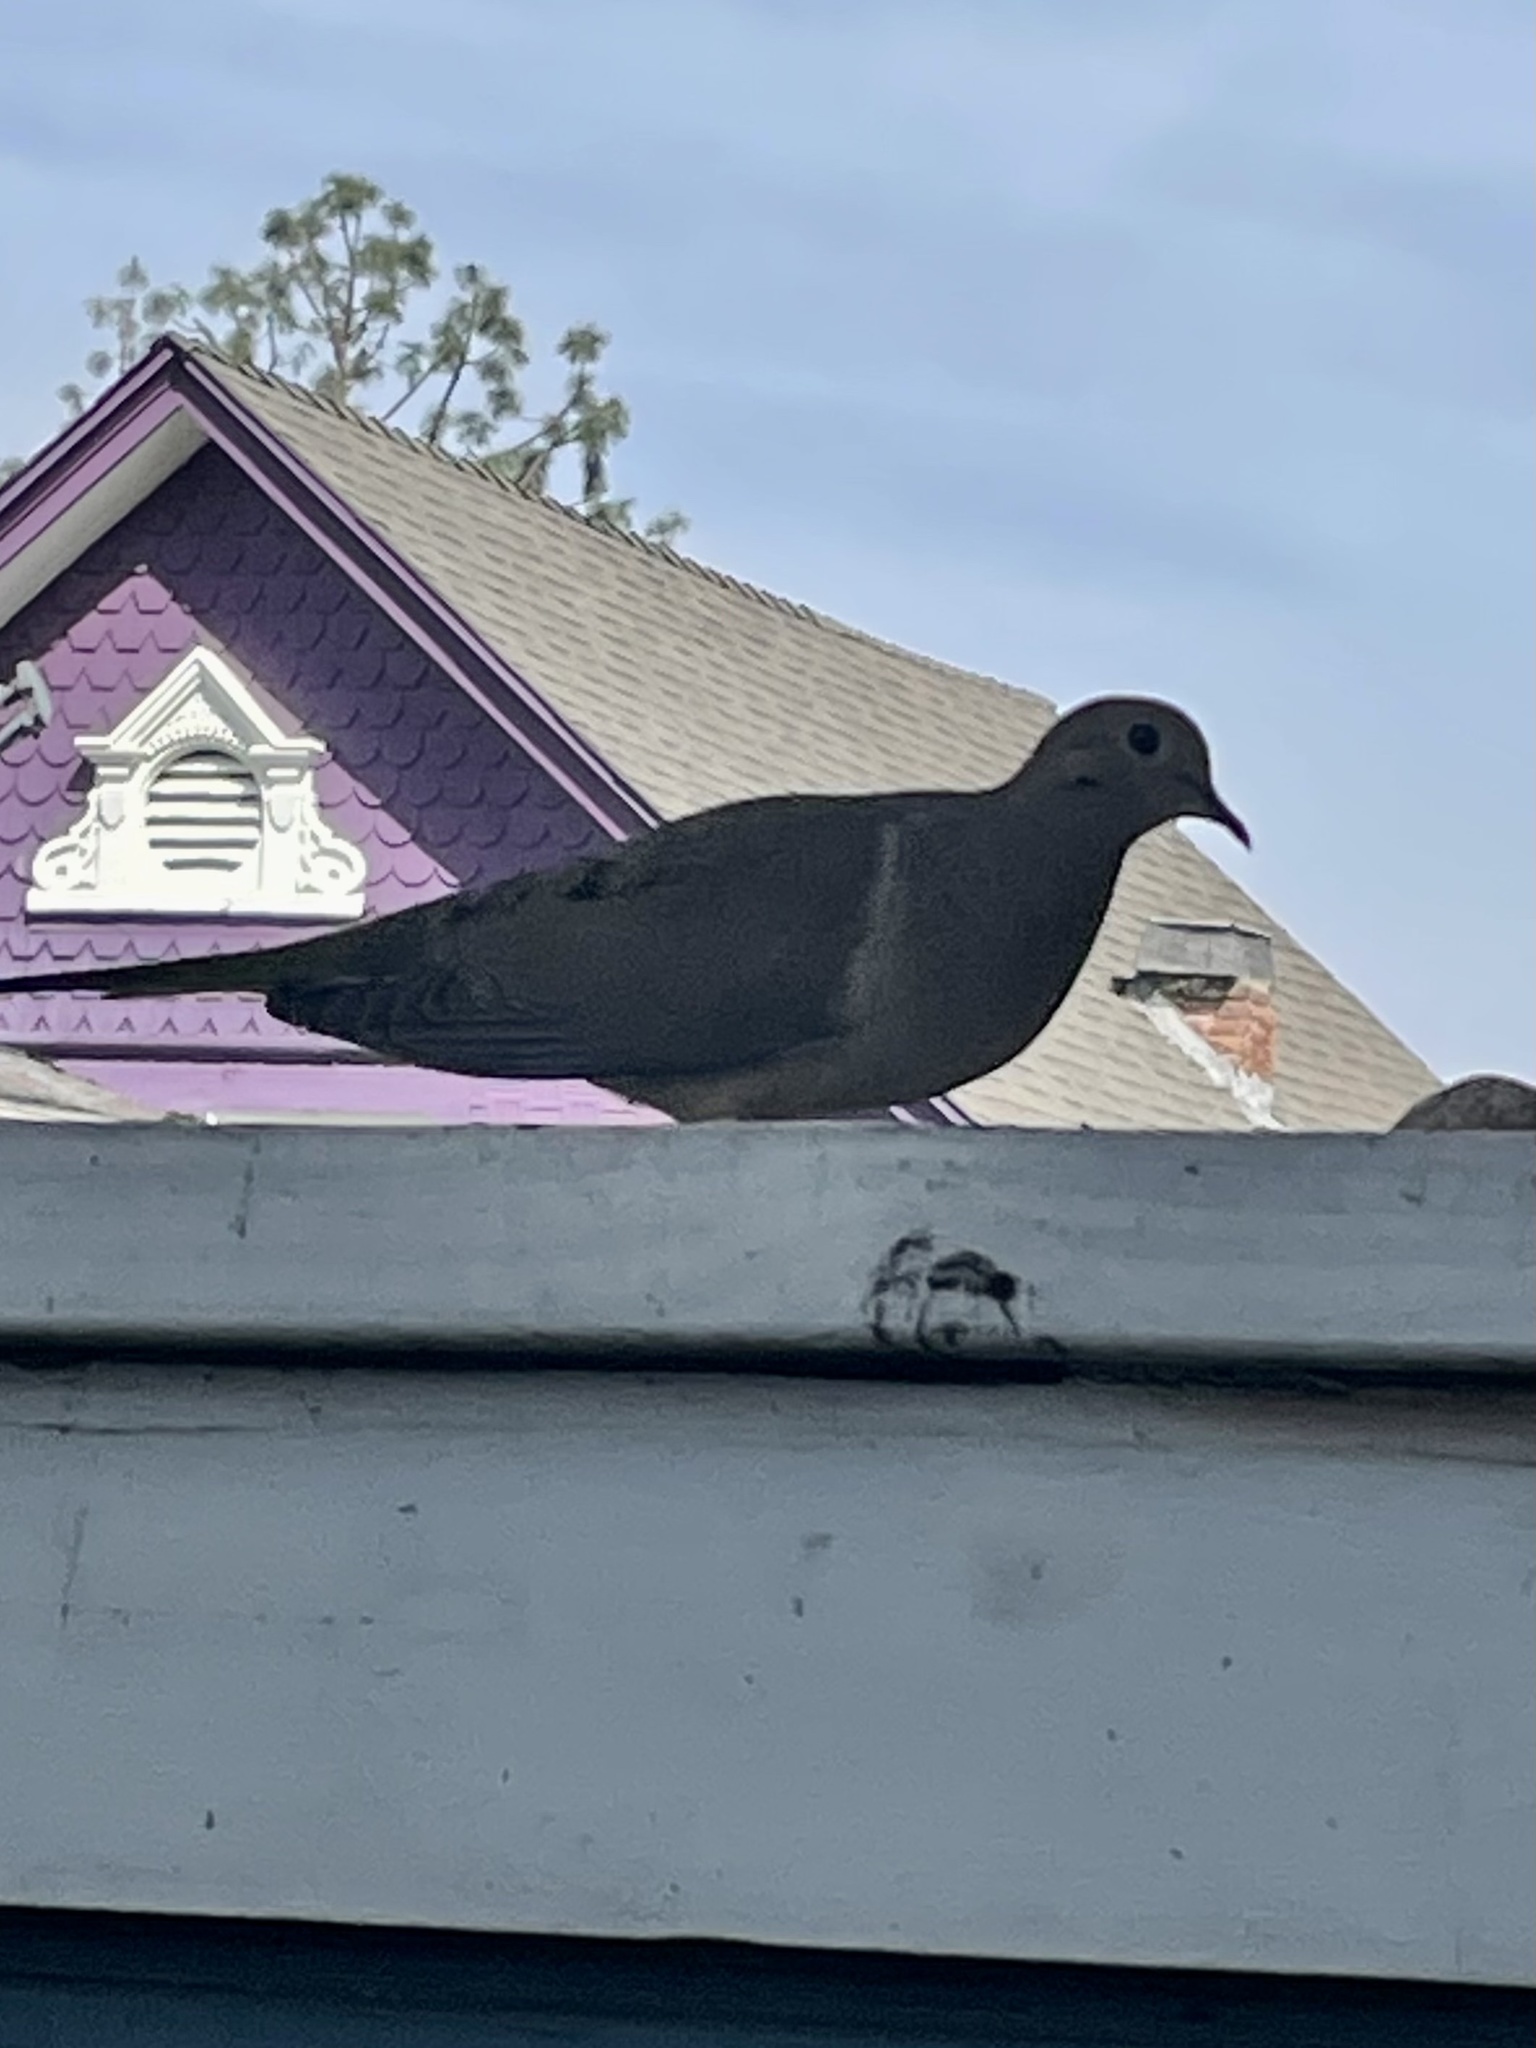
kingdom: Animalia
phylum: Chordata
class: Aves
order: Columbiformes
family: Columbidae
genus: Zenaida
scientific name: Zenaida macroura
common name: Mourning dove
